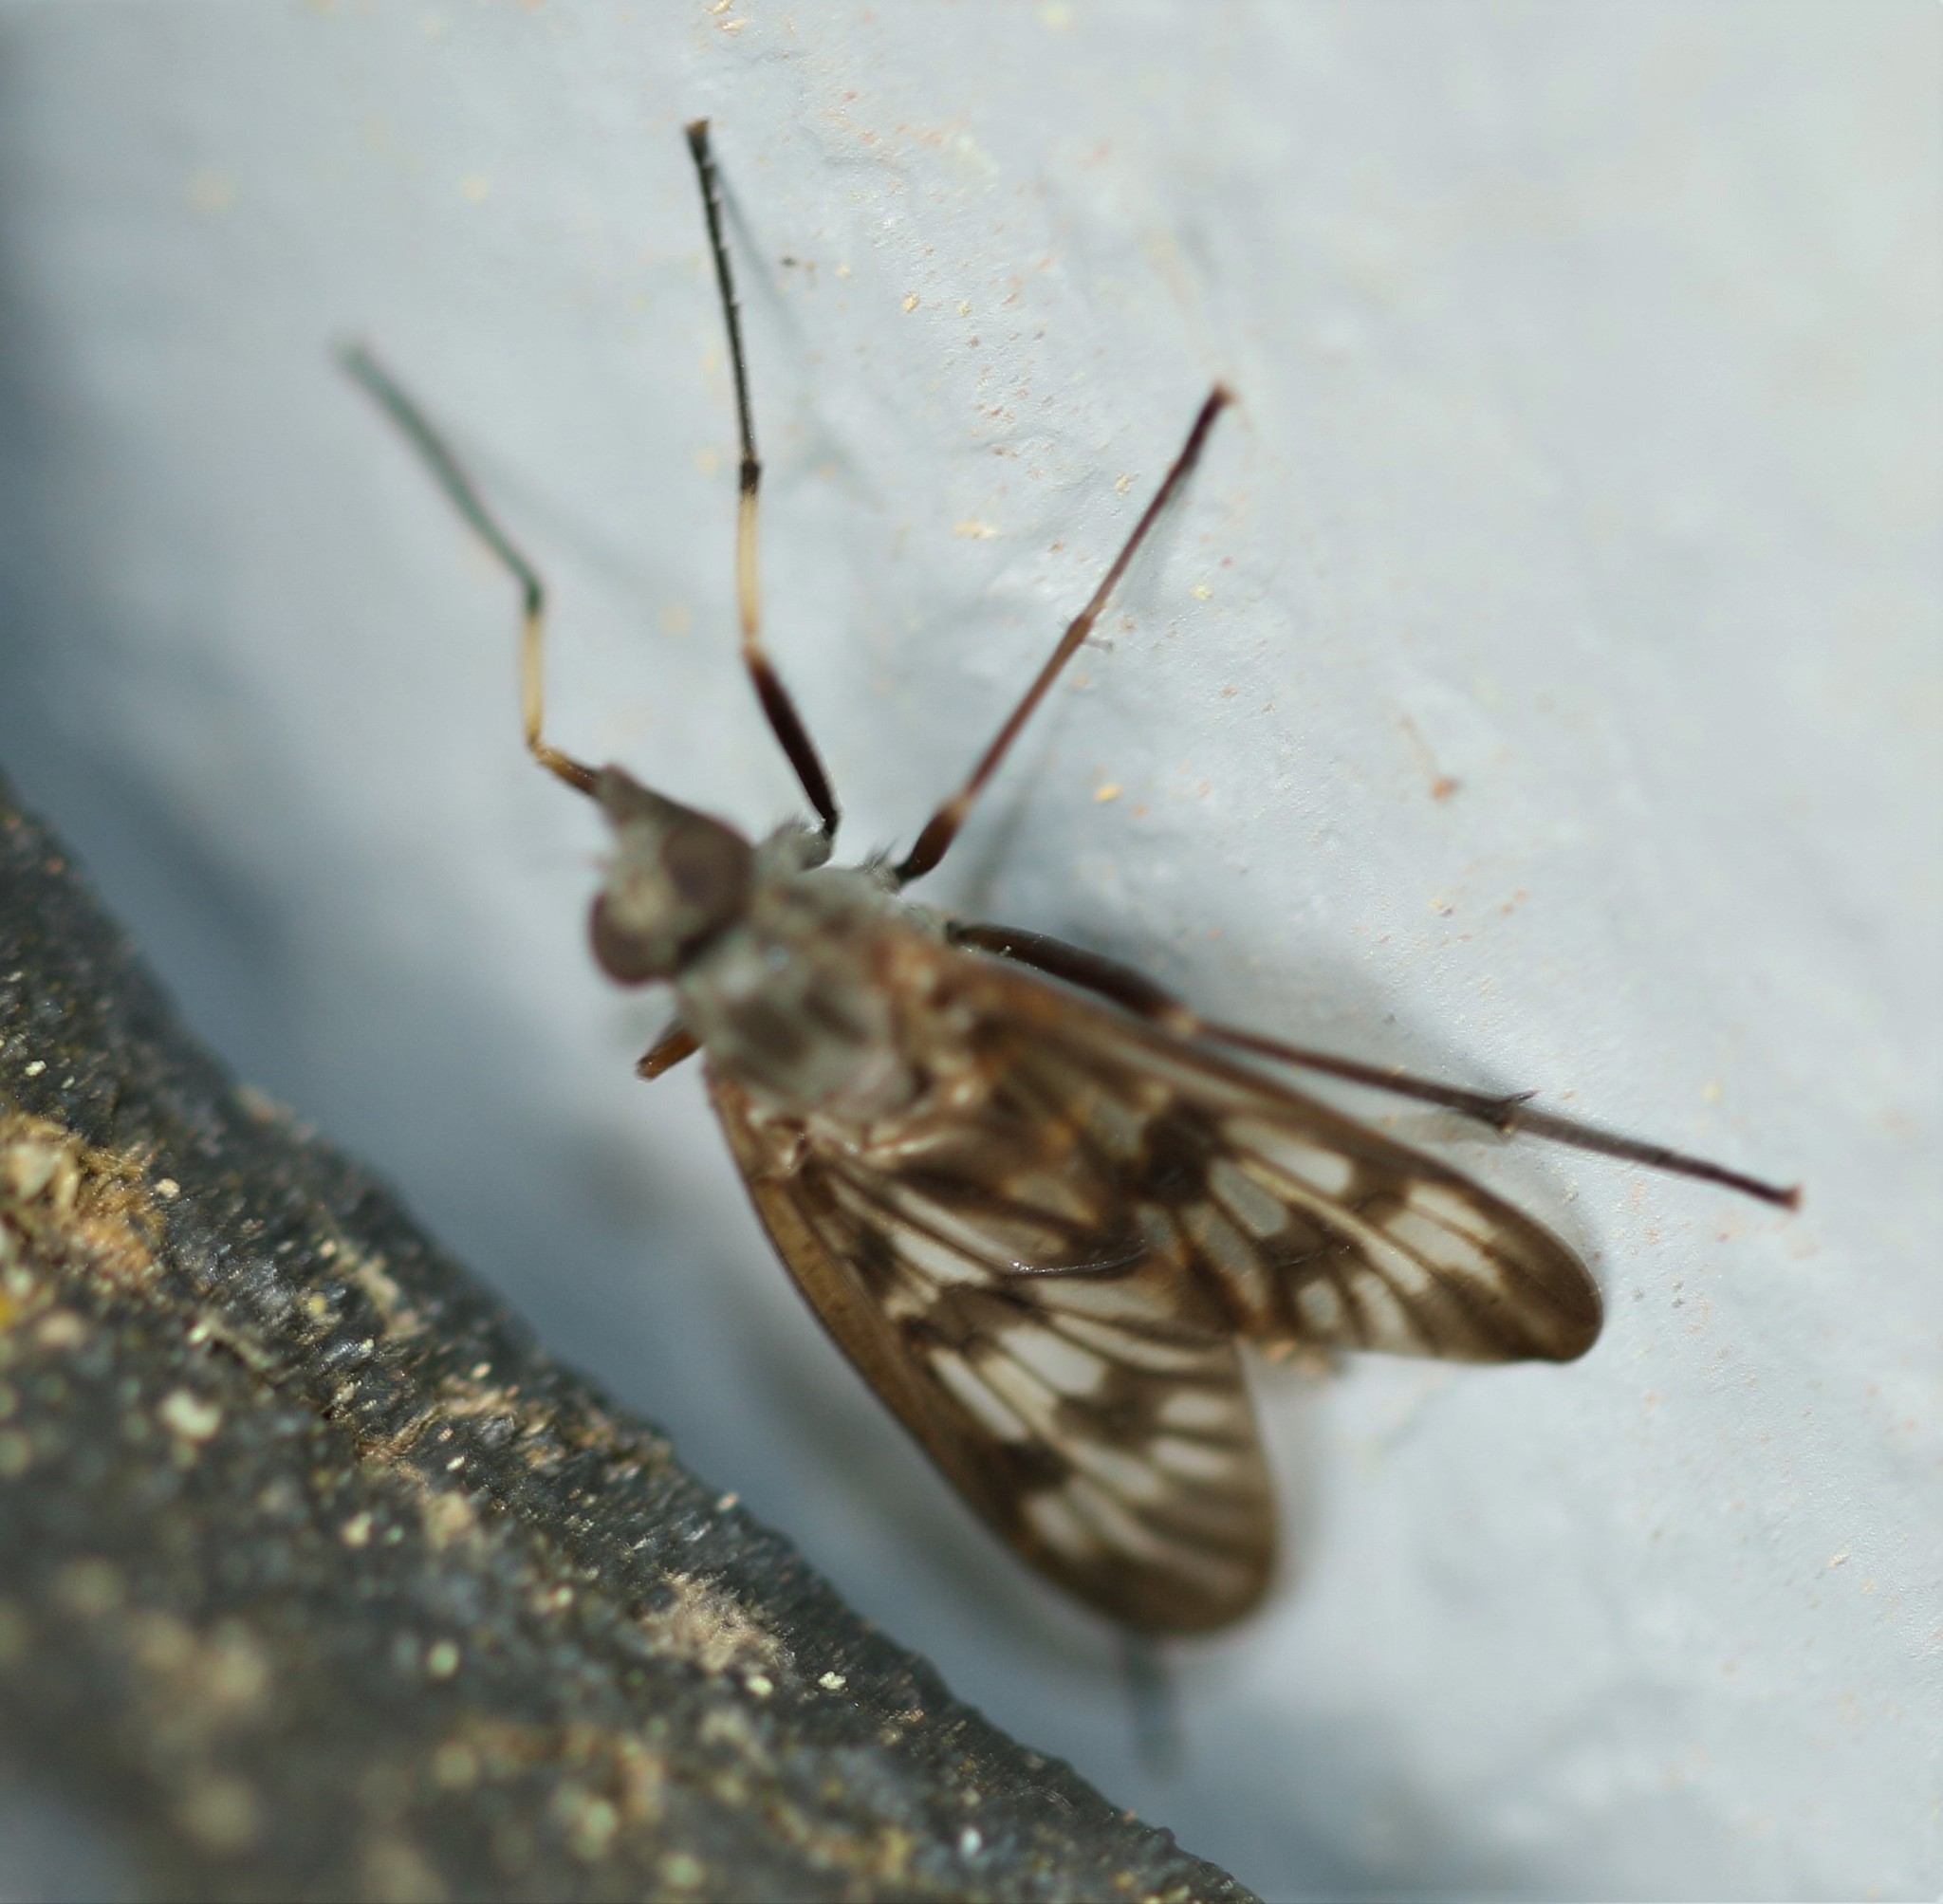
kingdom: Animalia
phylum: Arthropoda
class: Insecta
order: Diptera
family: Rhagionidae
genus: Rhagio
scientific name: Rhagio mystaceus
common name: Common snipe fly
